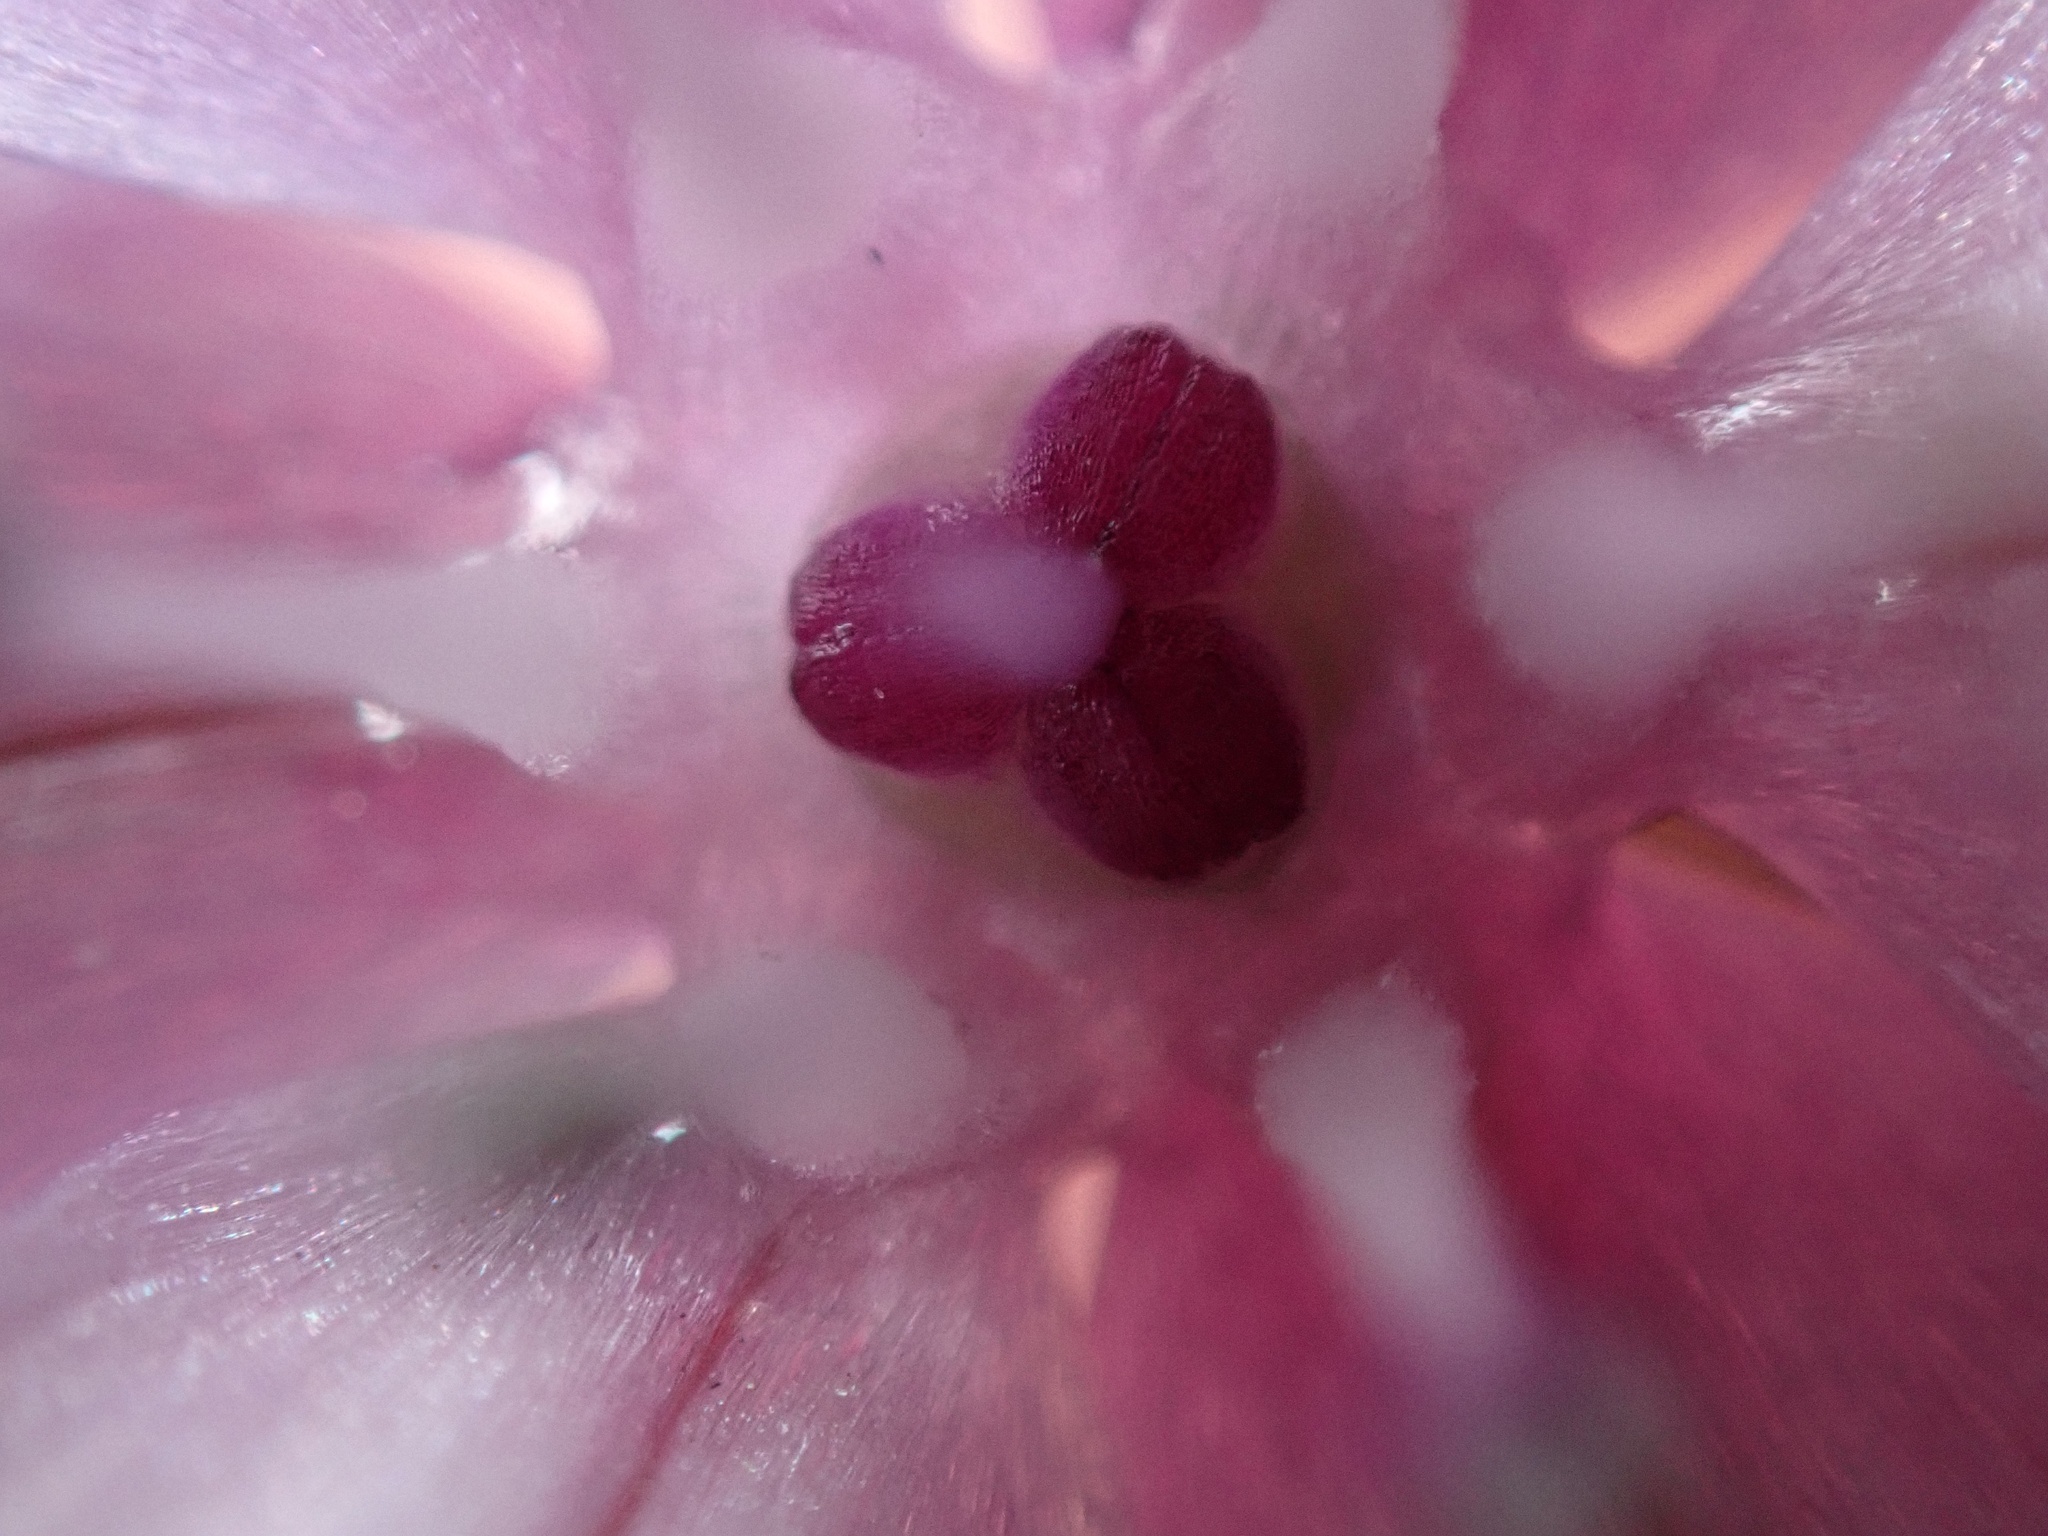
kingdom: Plantae
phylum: Tracheophyta
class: Liliopsida
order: Asparagales
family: Amaryllidaceae
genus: Allium
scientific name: Allium praecox
